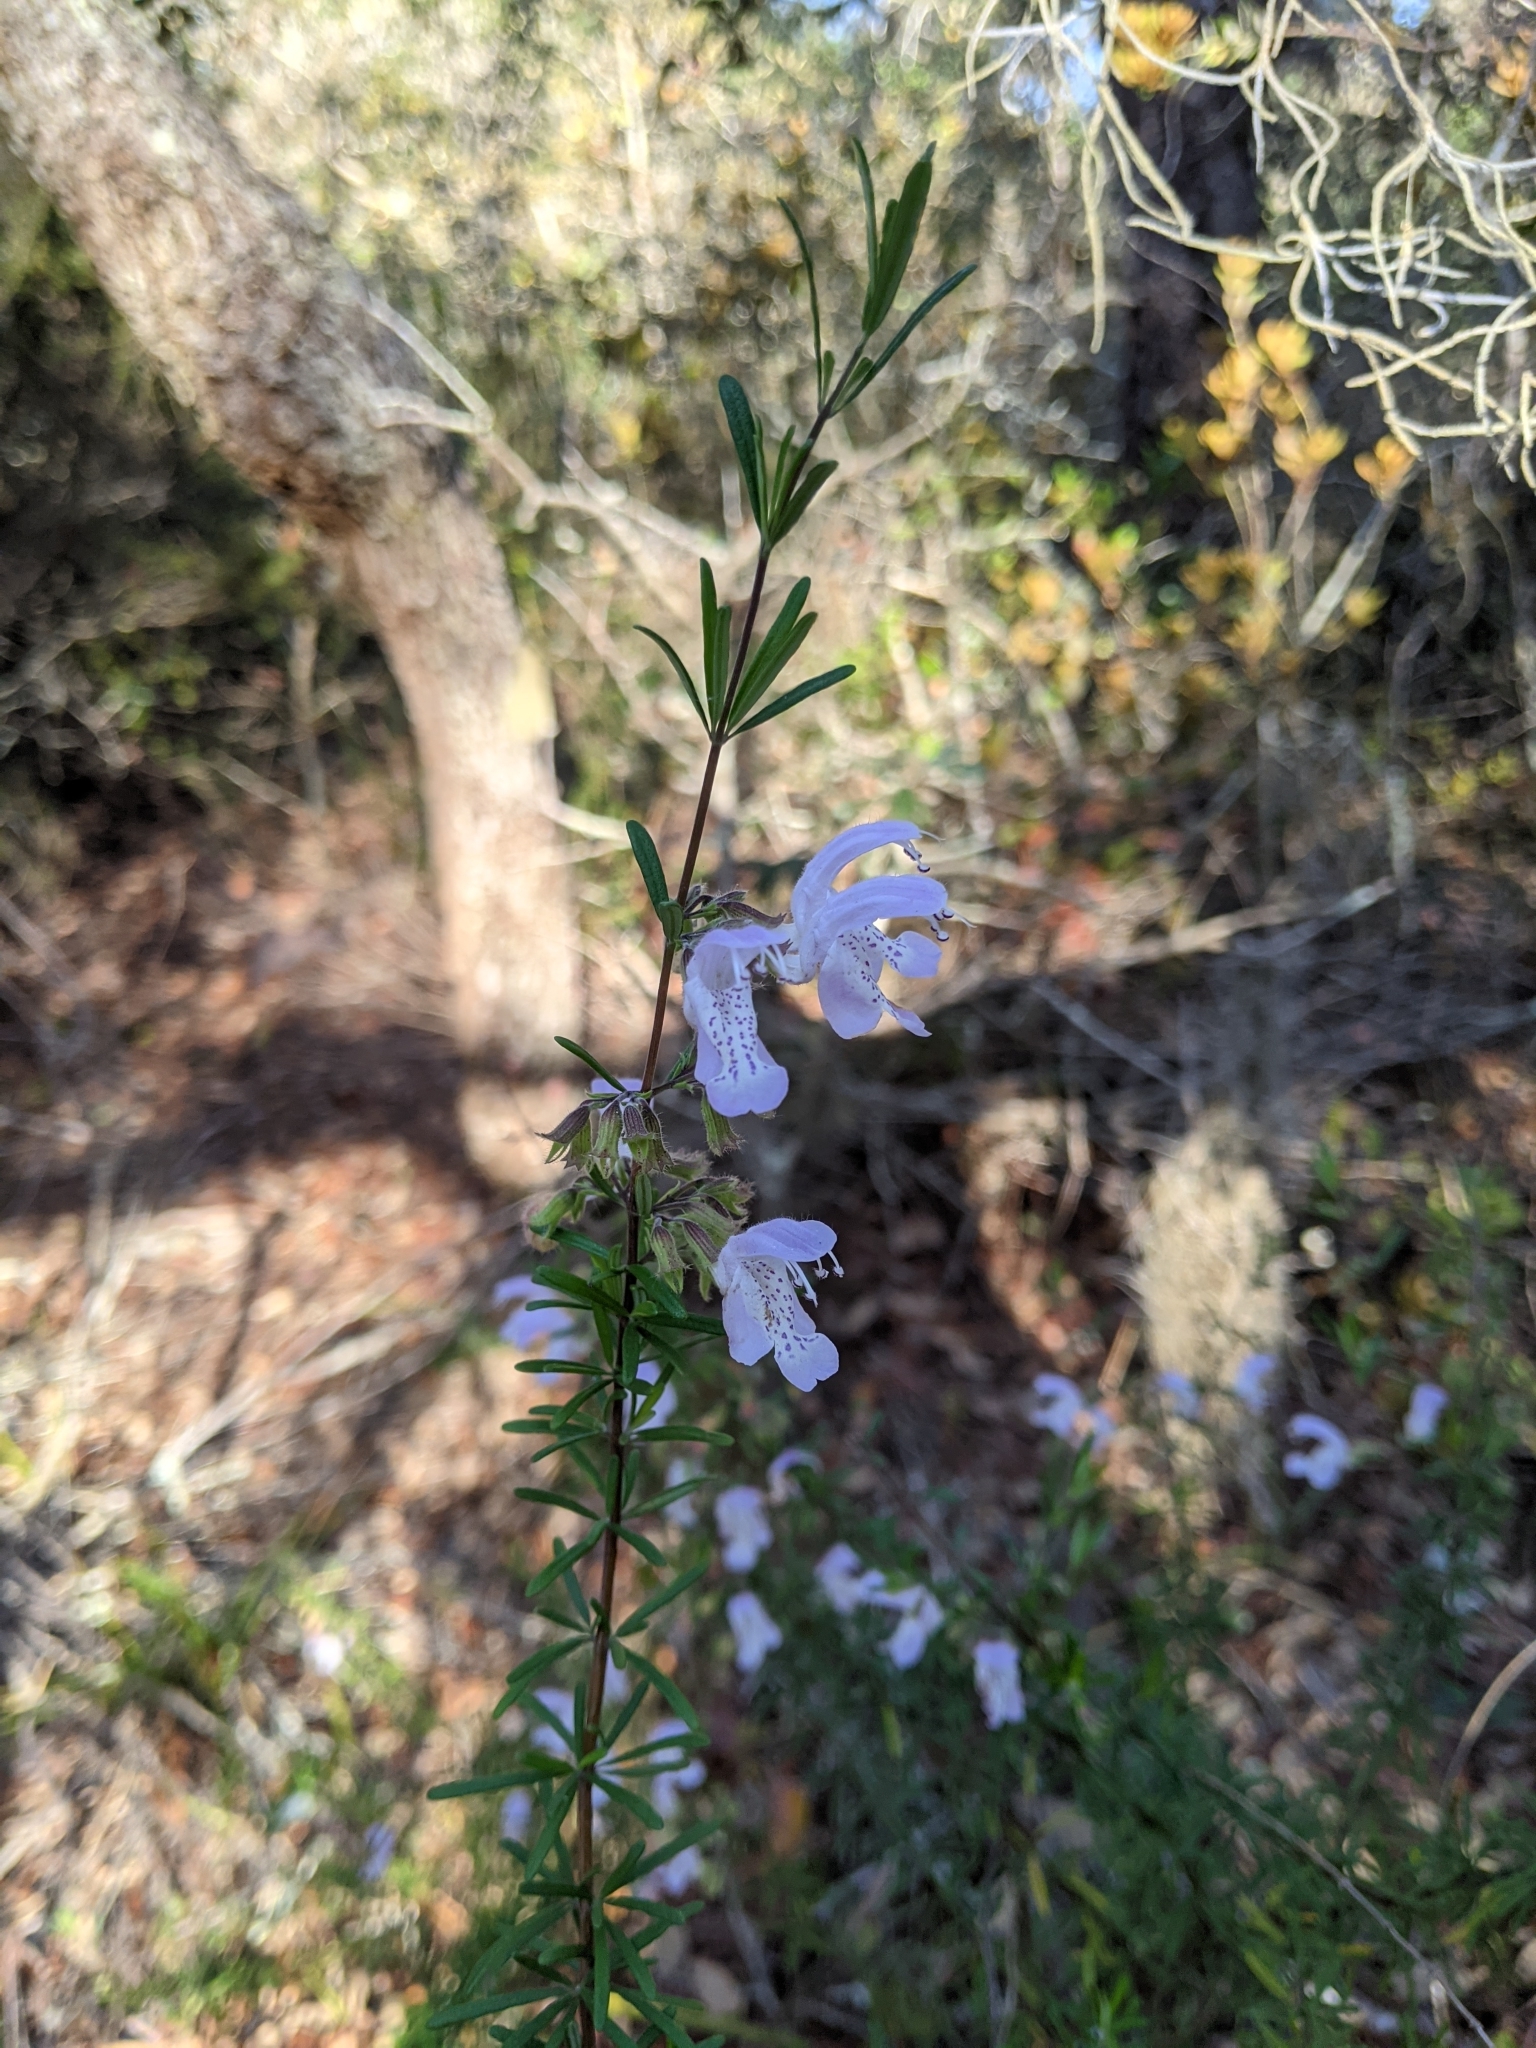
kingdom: Plantae
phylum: Tracheophyta
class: Magnoliopsida
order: Lamiales
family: Lamiaceae
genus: Conradina
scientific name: Conradina grandiflora
